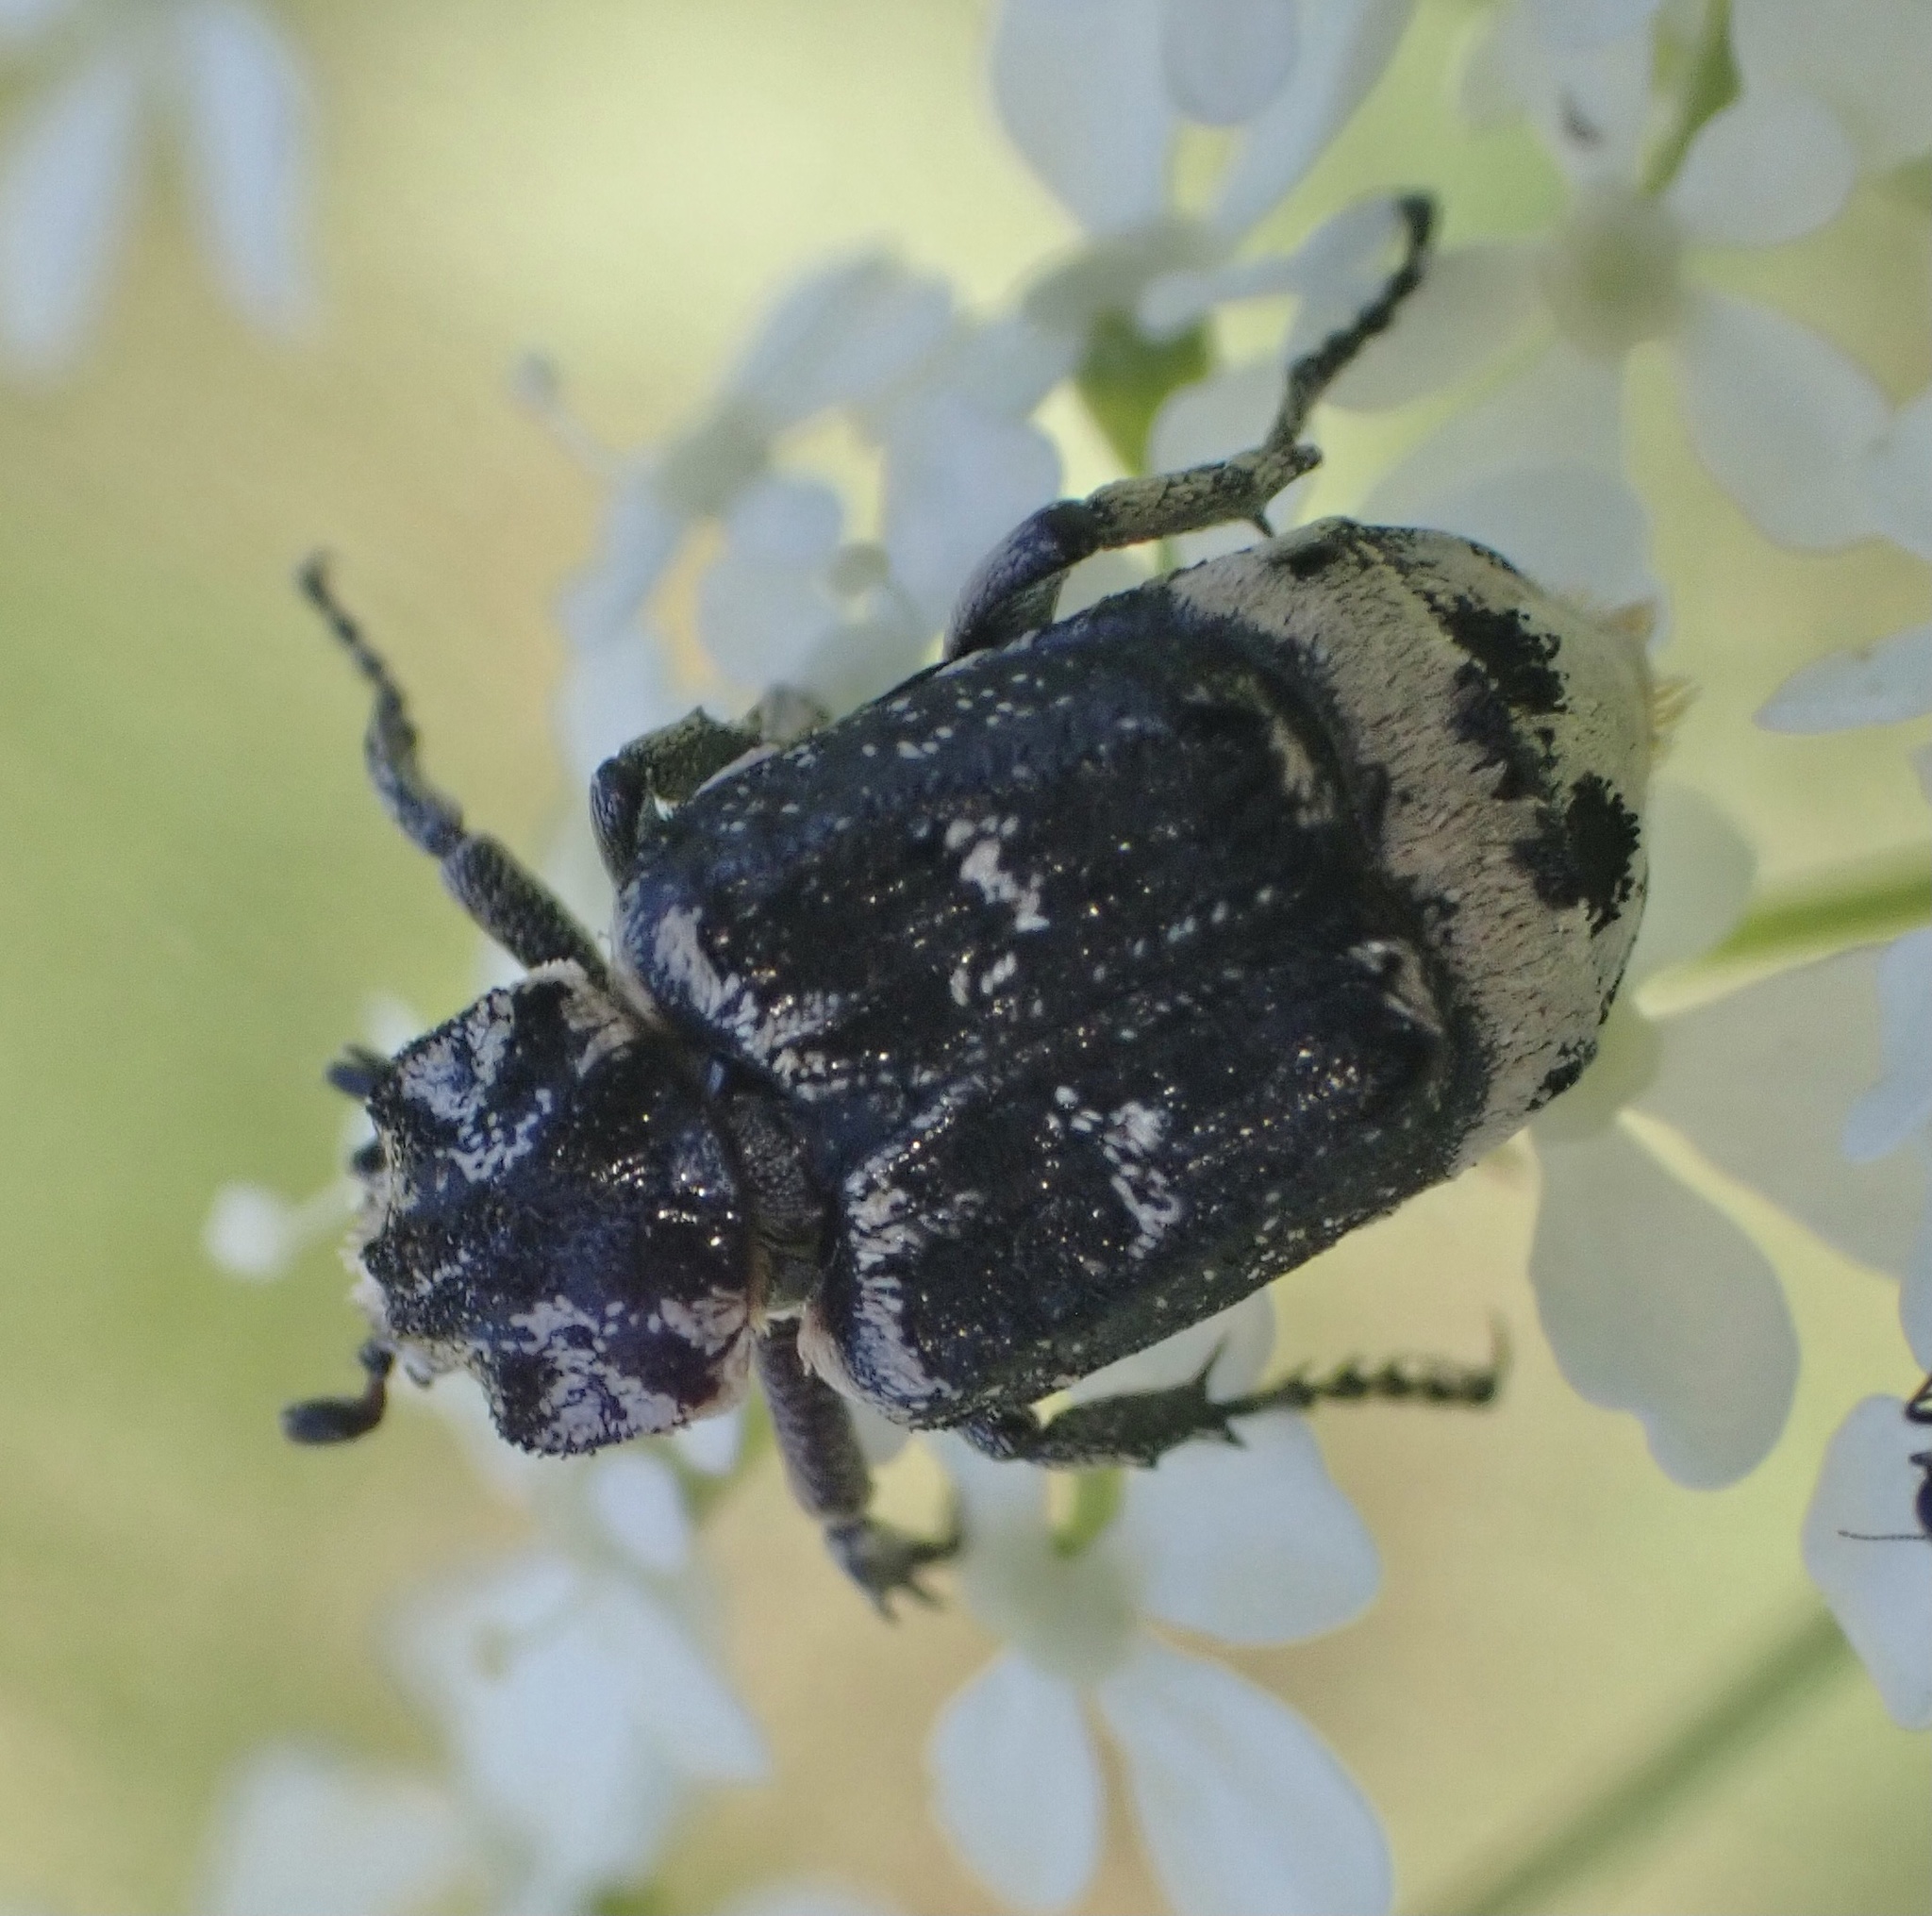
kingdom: Animalia
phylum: Arthropoda
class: Insecta
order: Coleoptera
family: Scarabaeidae
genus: Valgus
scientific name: Valgus hemipterus
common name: Bug flower chafer
